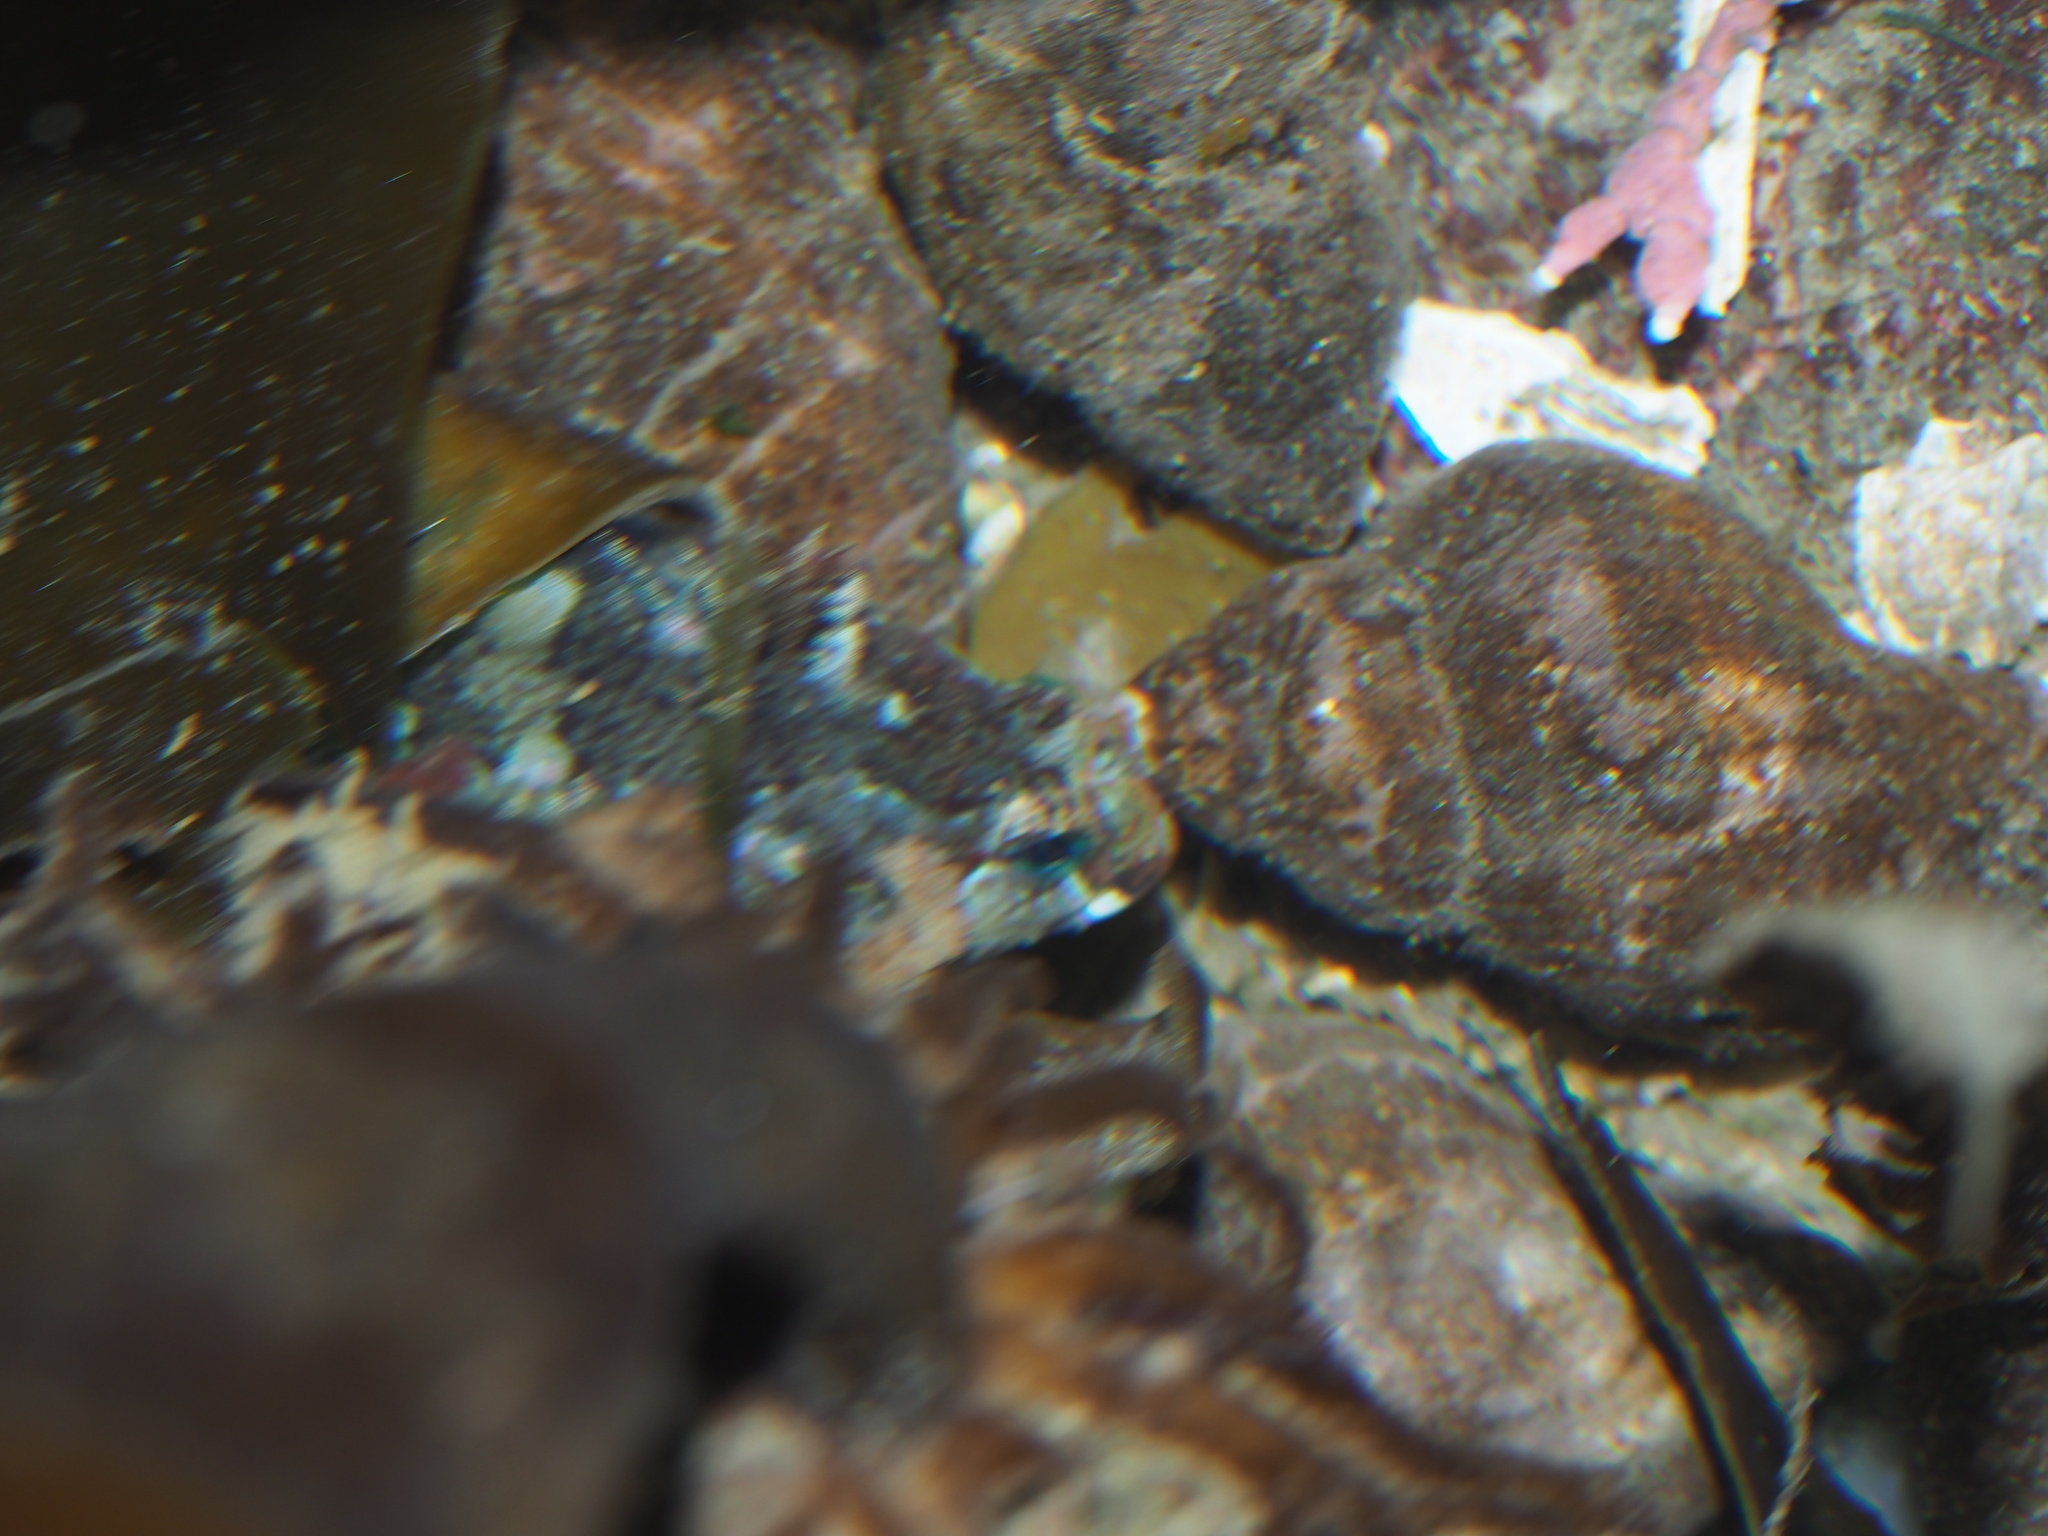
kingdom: Animalia
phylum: Chordata
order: Scorpaeniformes
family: Cottidae
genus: Oligocottus
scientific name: Oligocottus snyderi
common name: Fluffy sculpin
